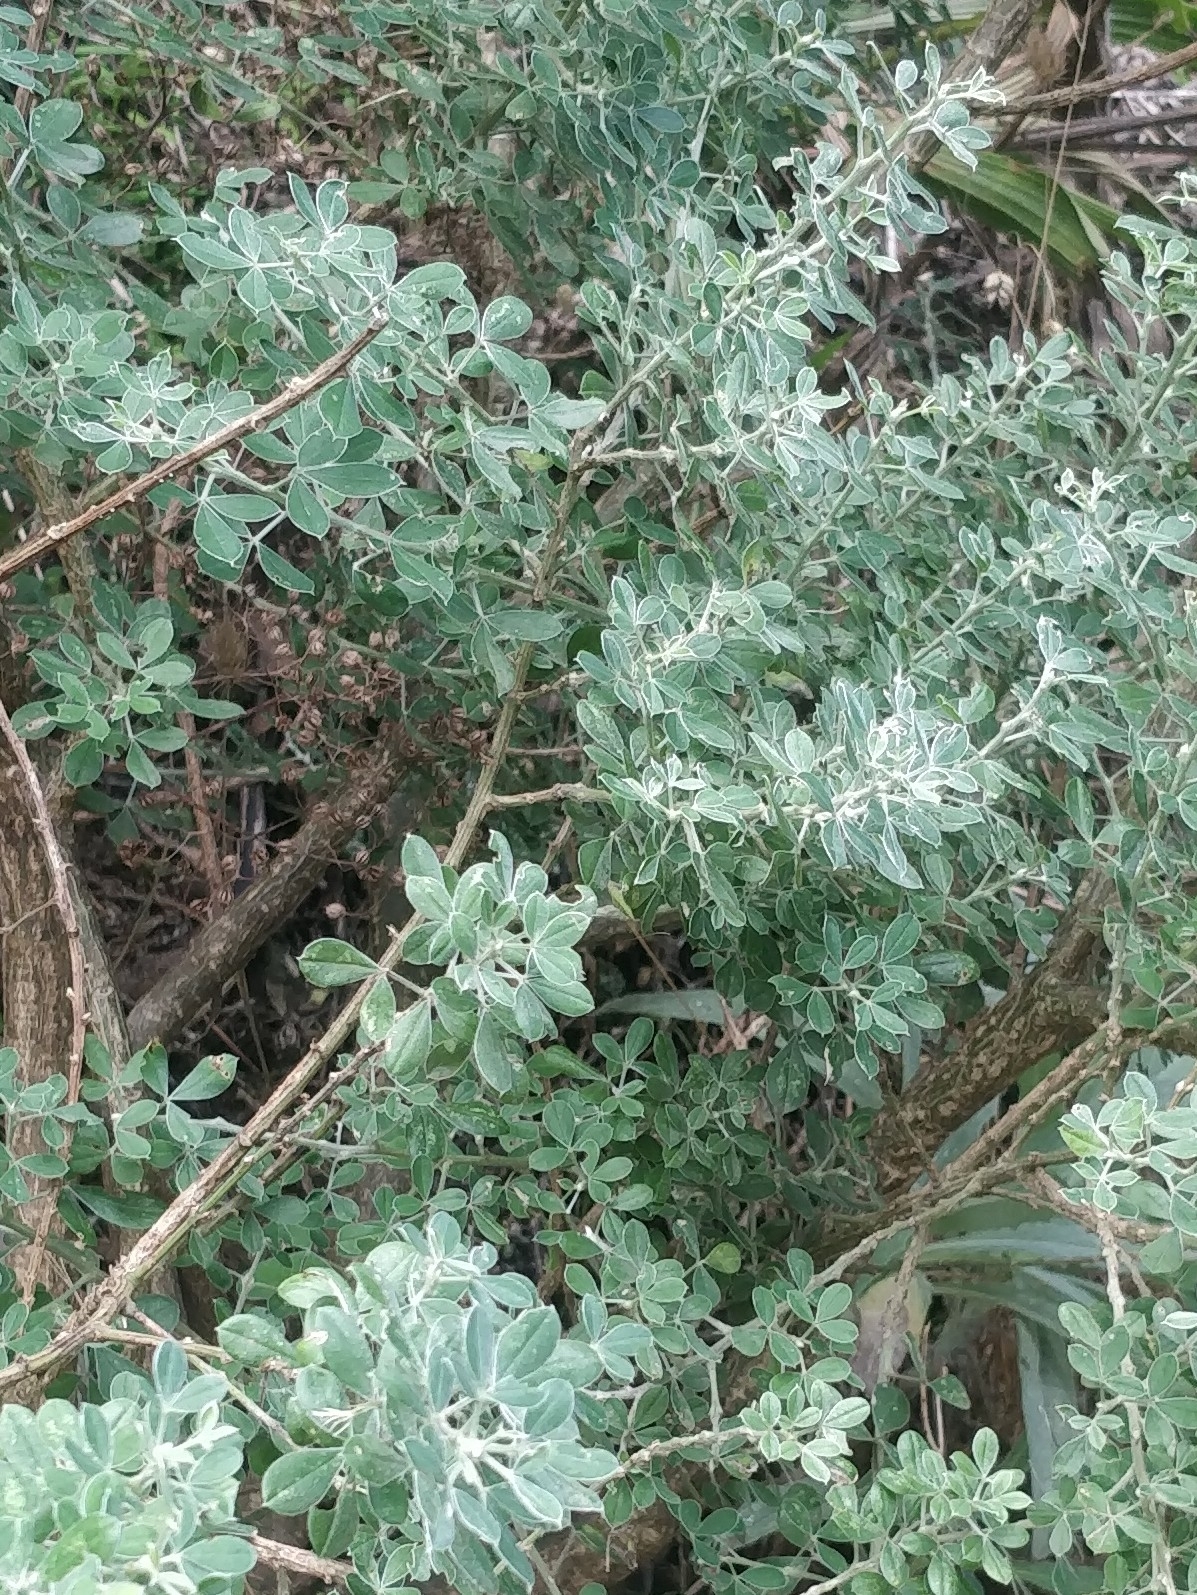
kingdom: Plantae
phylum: Tracheophyta
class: Magnoliopsida
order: Fabales
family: Fabaceae
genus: Genista
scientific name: Genista maderensis
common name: Madeira dyer's greenweed
